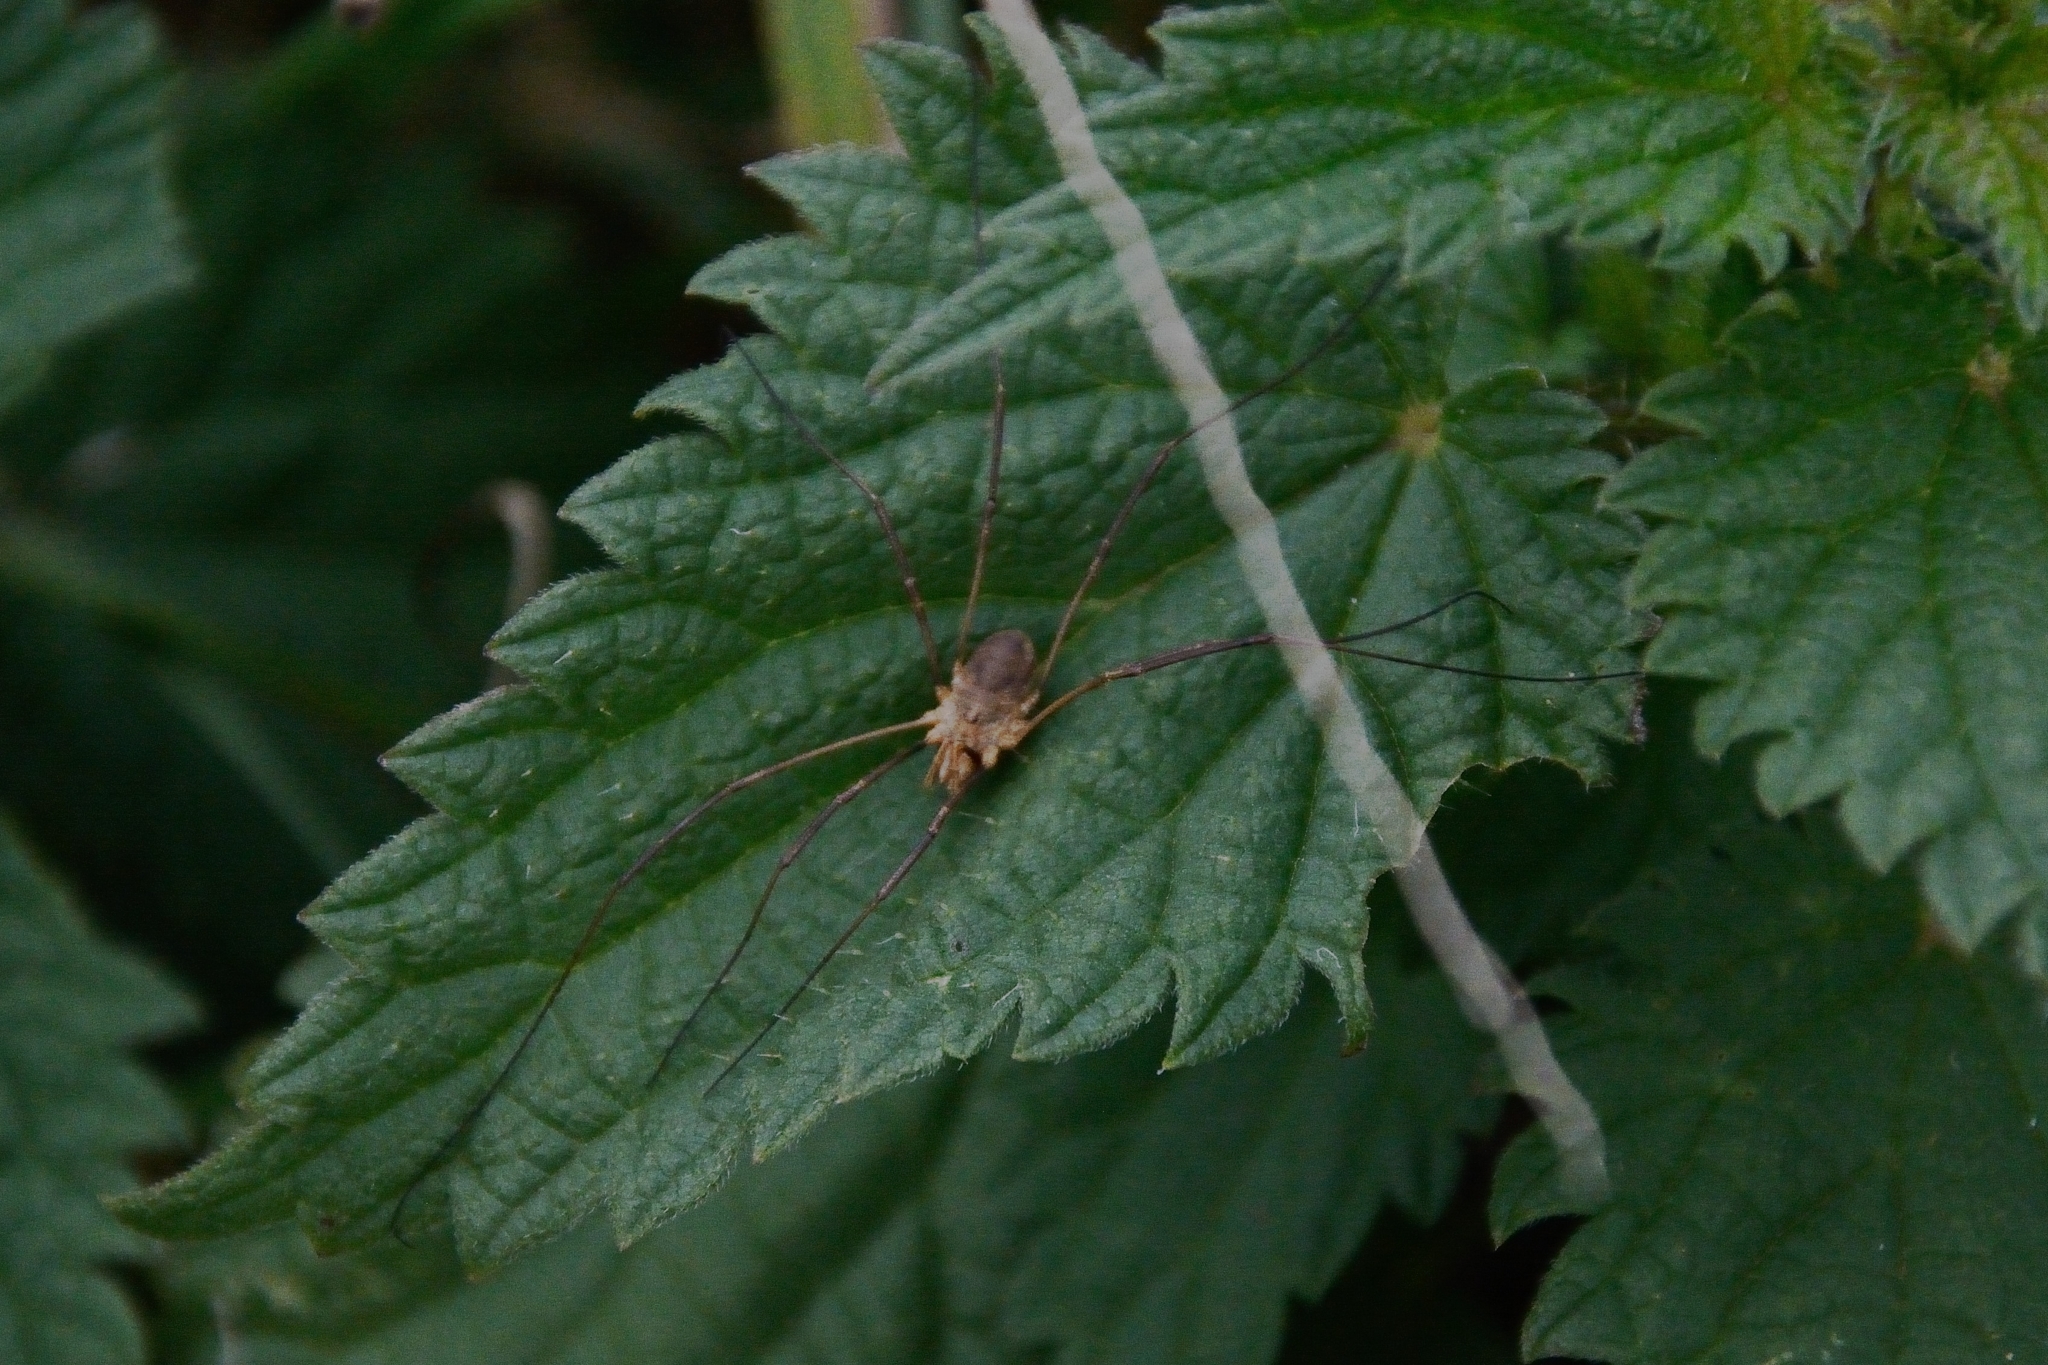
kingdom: Animalia
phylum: Arthropoda
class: Arachnida
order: Opiliones
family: Phalangiidae
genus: Phalangium
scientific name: Phalangium opilio
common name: Daddy longleg
